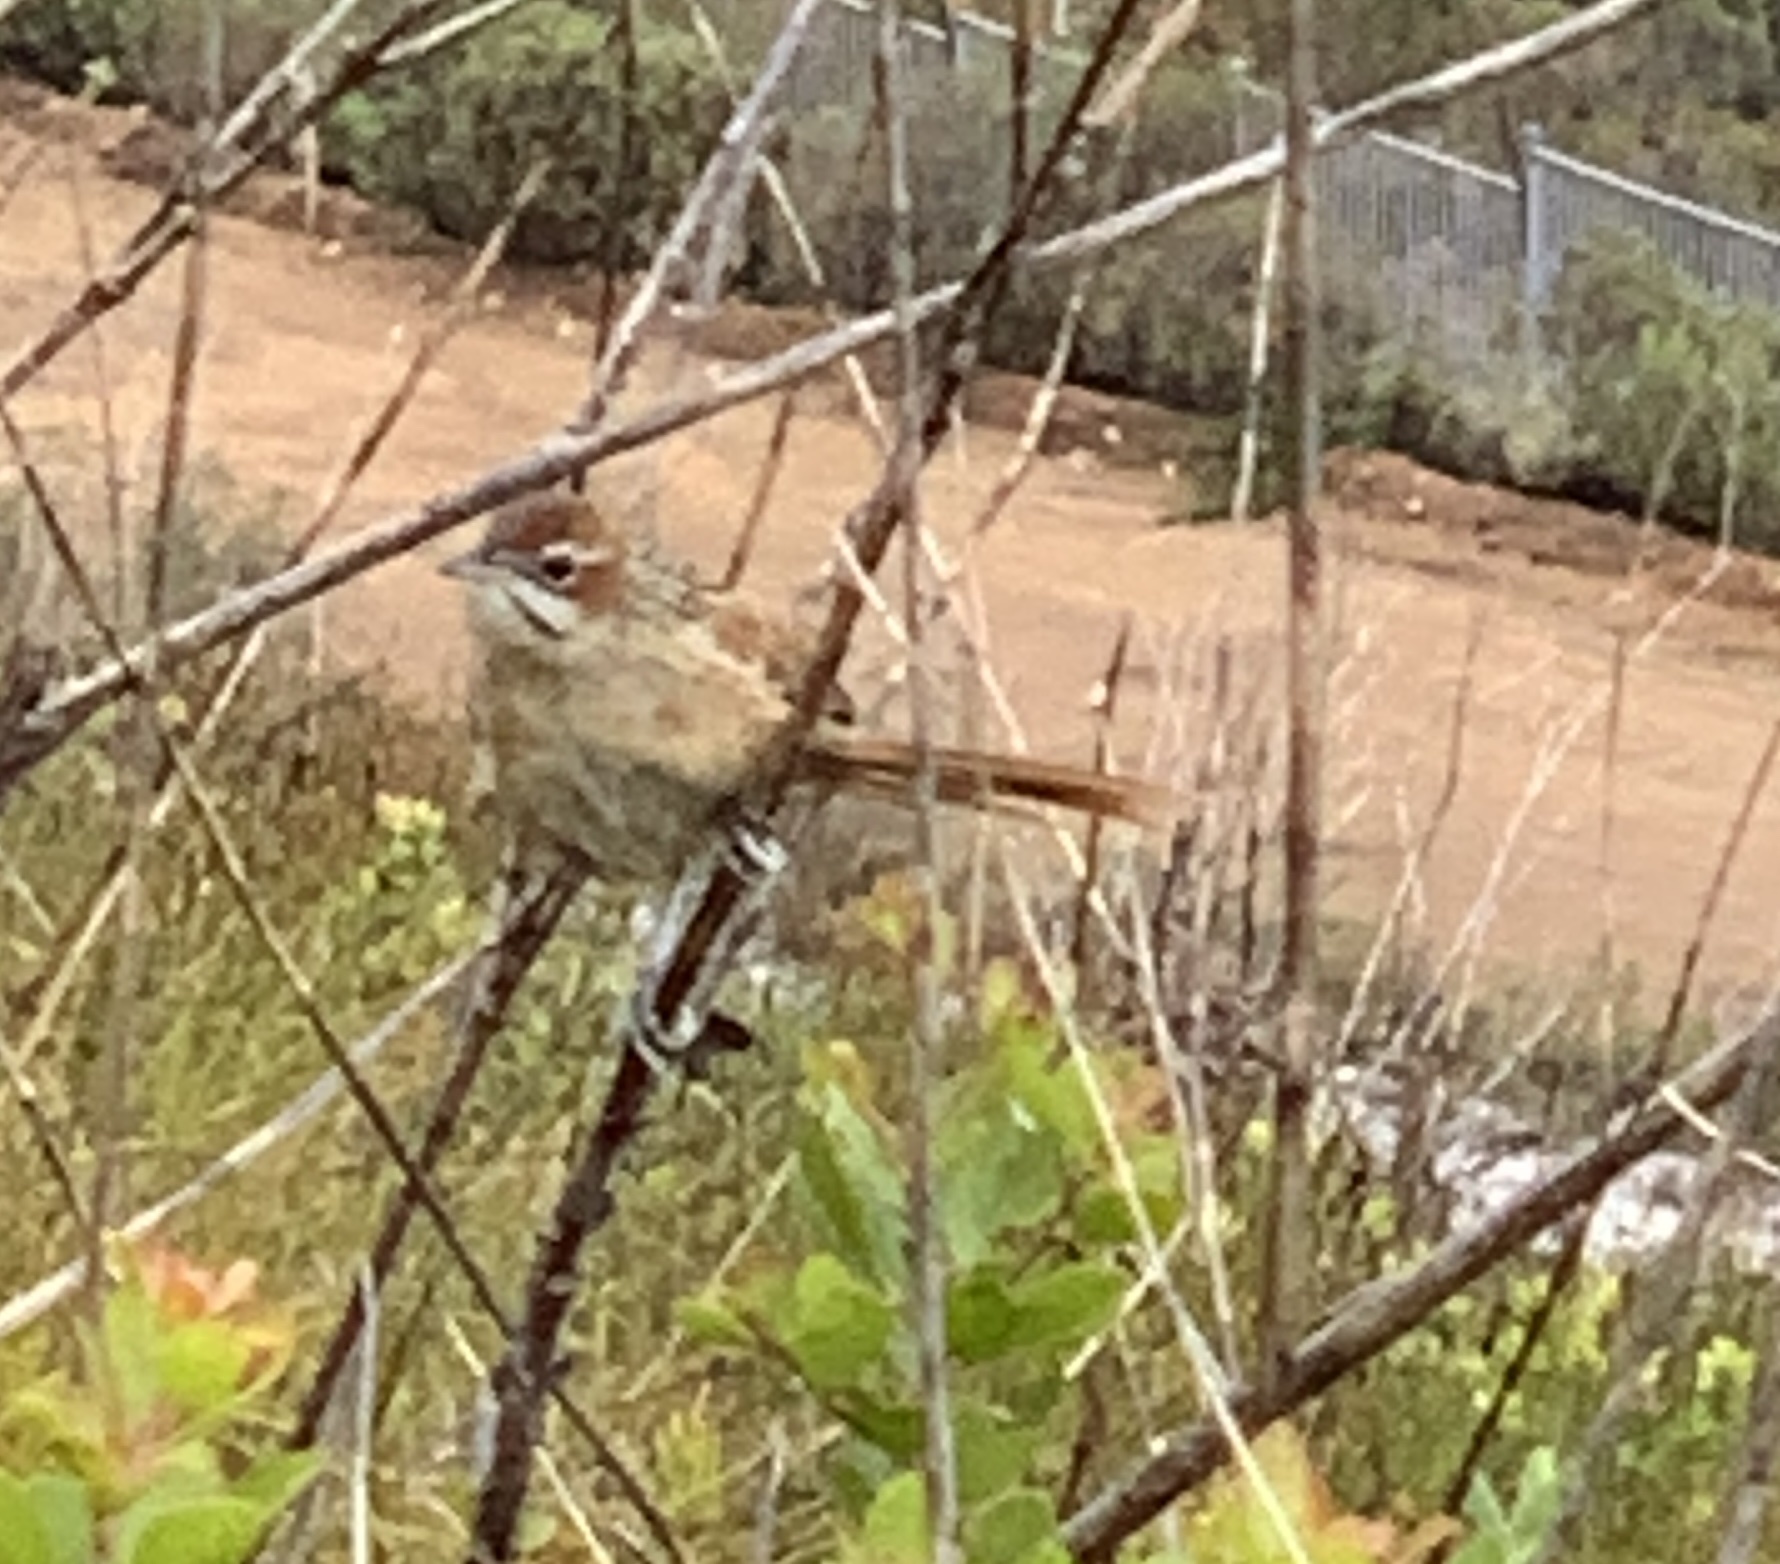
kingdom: Animalia
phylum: Chordata
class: Aves
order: Passeriformes
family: Macrosphenidae
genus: Sphenoeacus
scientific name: Sphenoeacus afer
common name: Cape grassbird
